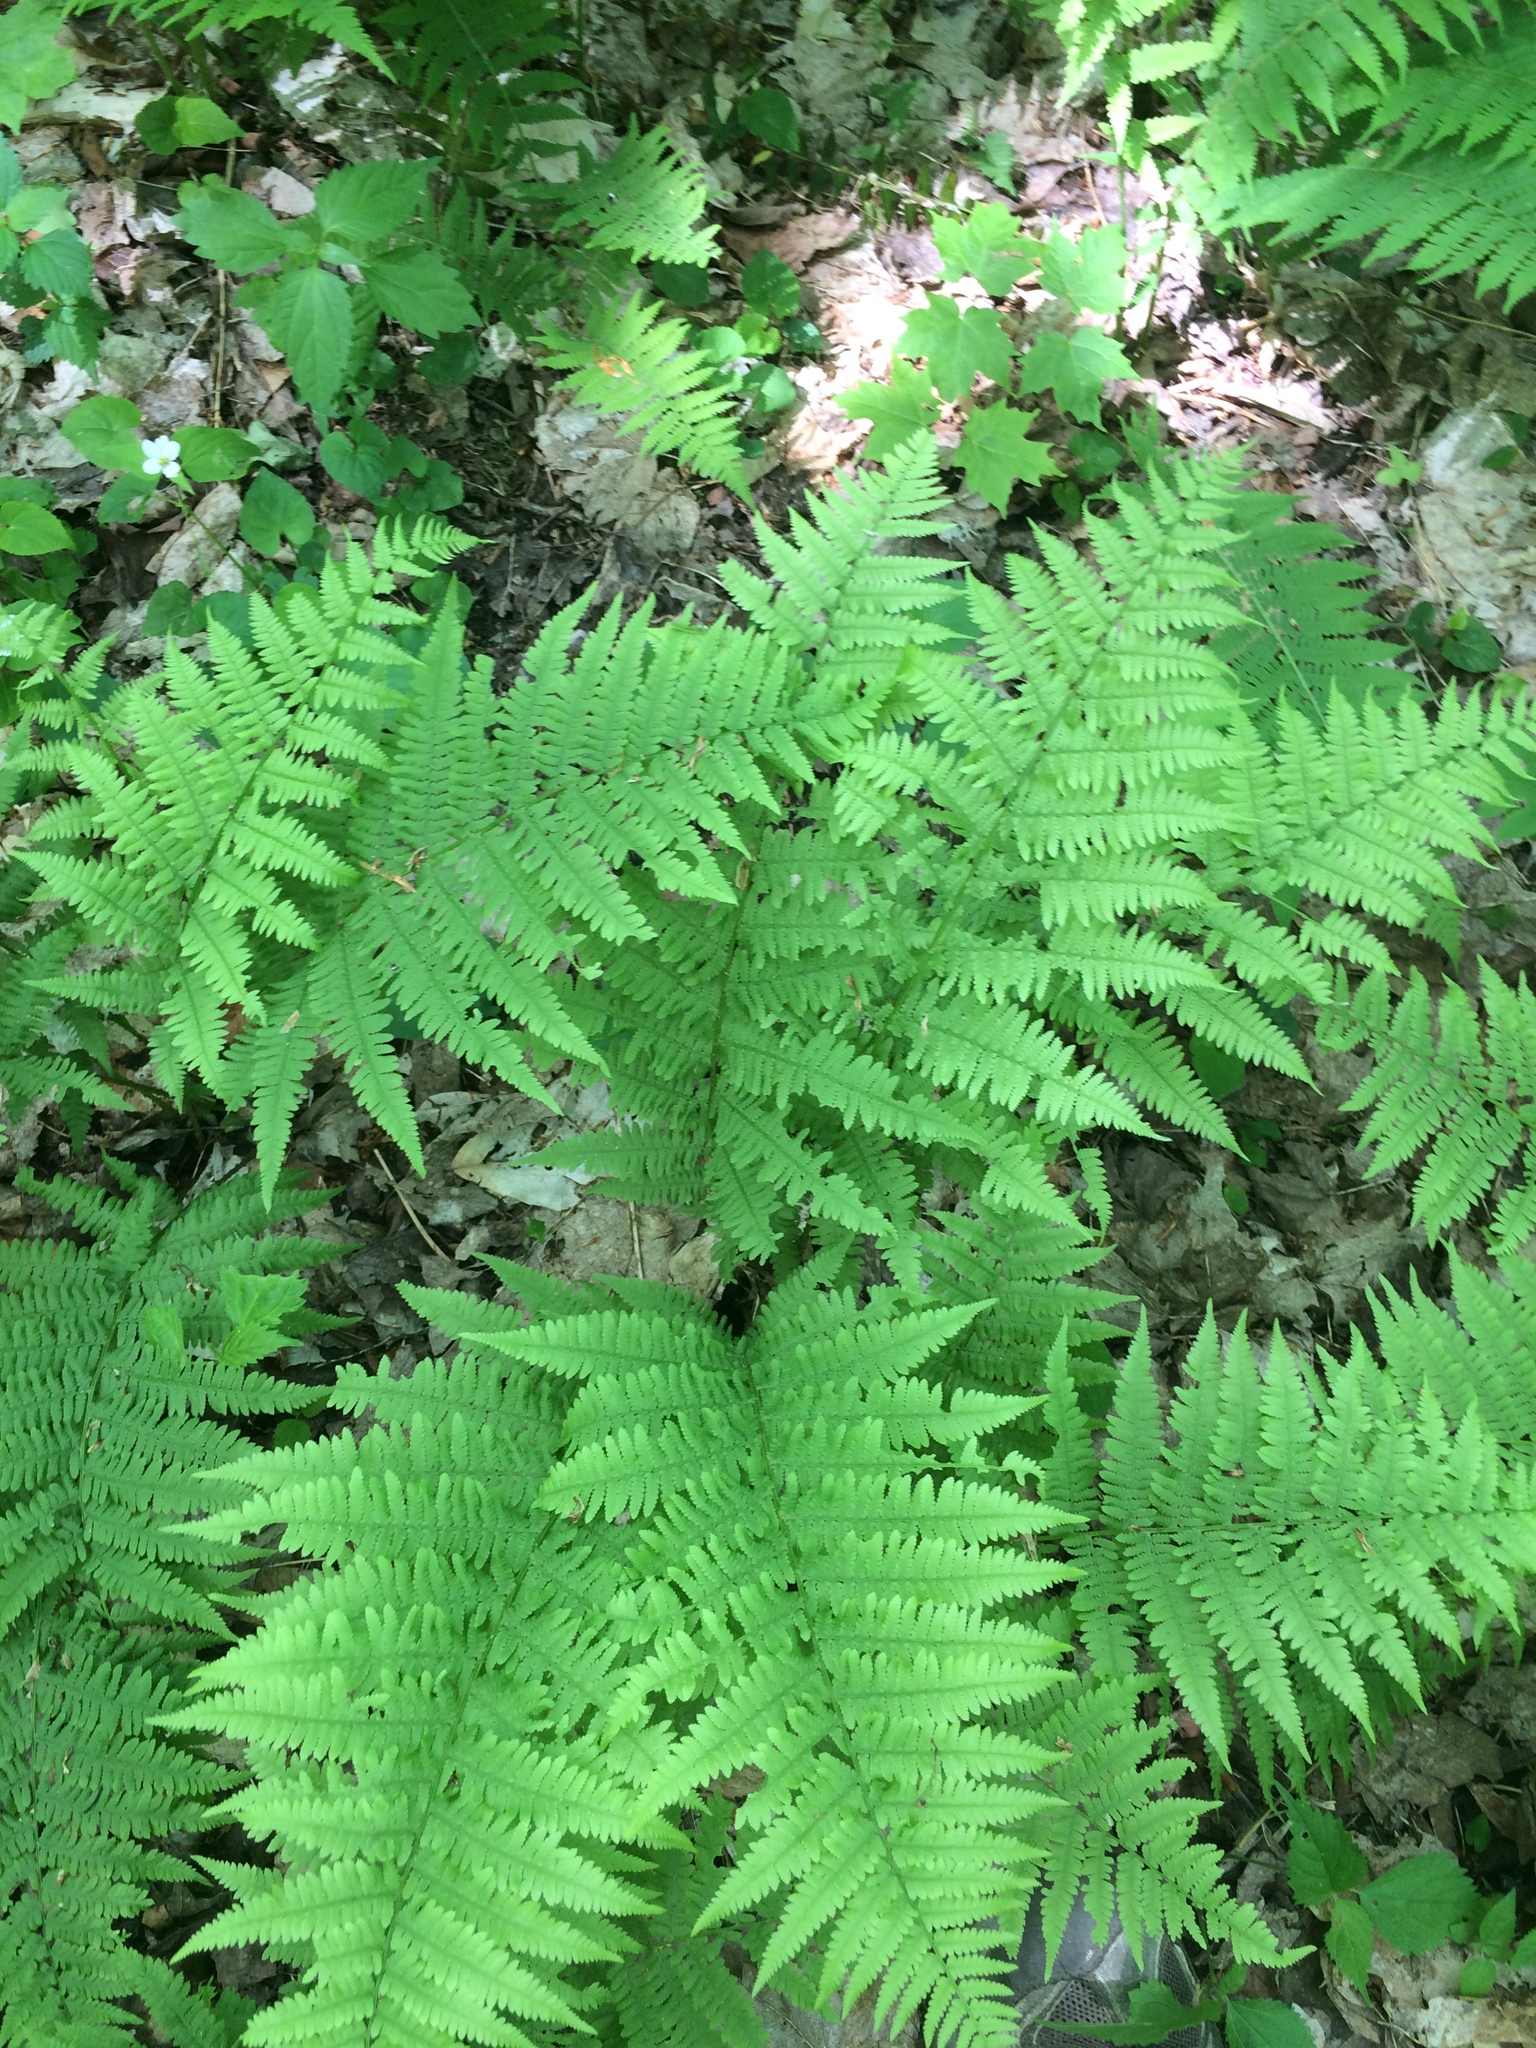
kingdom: Plantae
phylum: Tracheophyta
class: Polypodiopsida
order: Polypodiales
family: Athyriaceae
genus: Athyrium
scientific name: Athyrium angustum
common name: Northern lady fern
